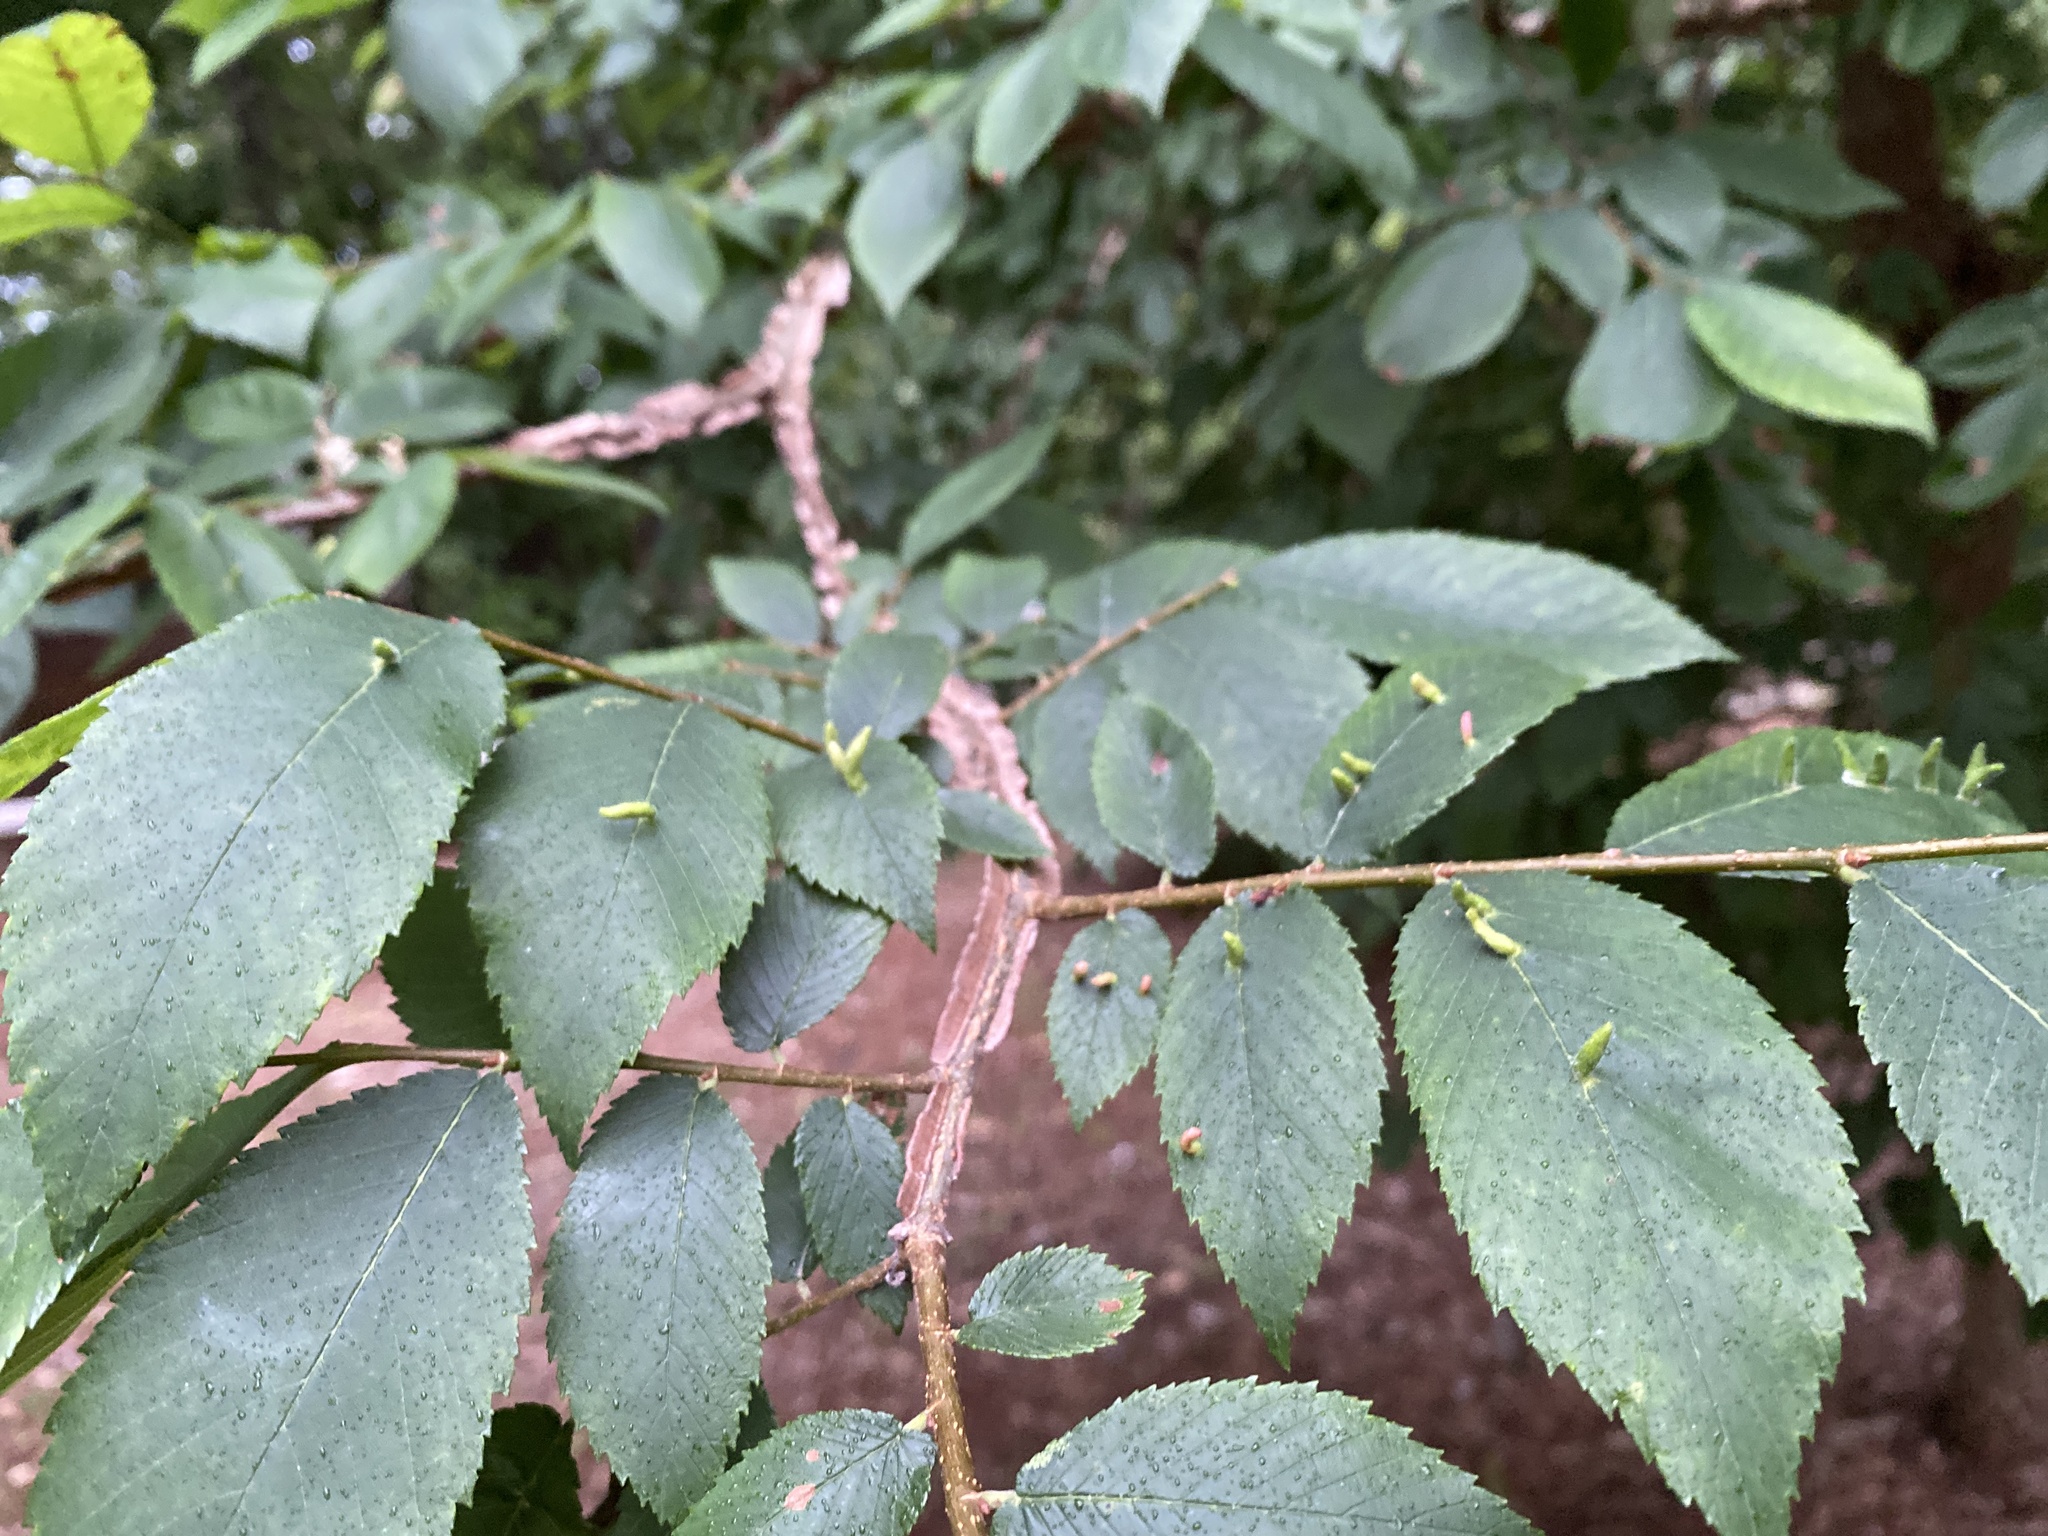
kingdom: Animalia
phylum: Arthropoda
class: Arachnida
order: Trombidiformes
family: Eriophyidae
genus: Aceria
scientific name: Aceria
